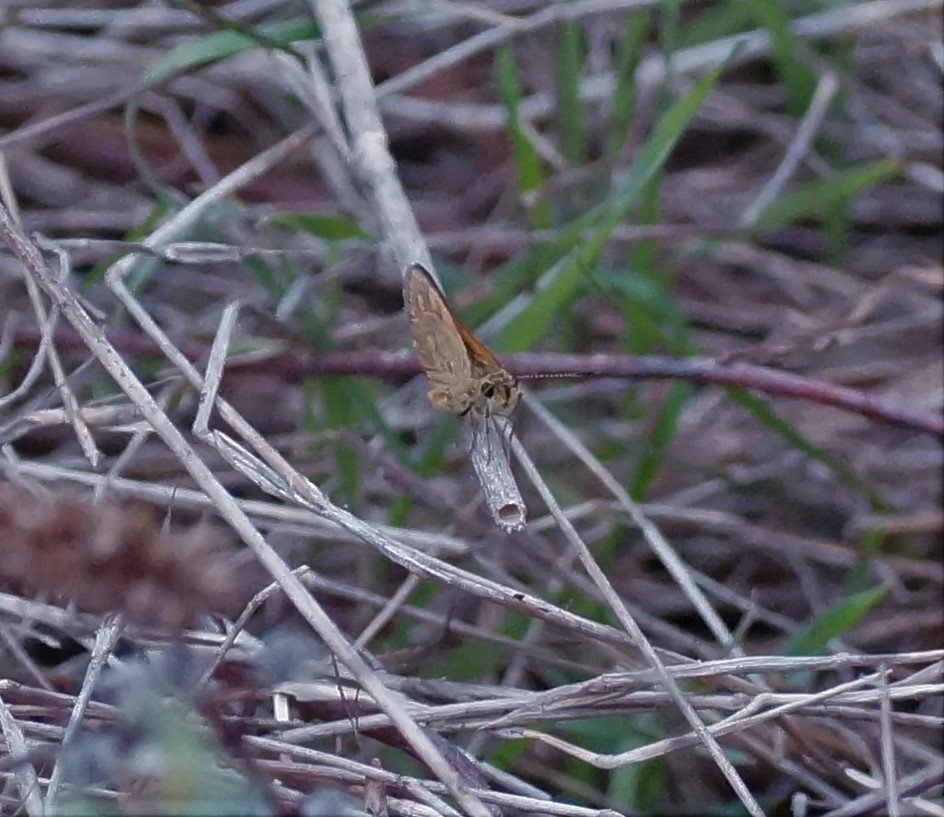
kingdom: Animalia
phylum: Arthropoda
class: Insecta
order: Lepidoptera
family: Hesperiidae
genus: Ocybadistes
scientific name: Ocybadistes walkeri
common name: Yellow-banded dart
